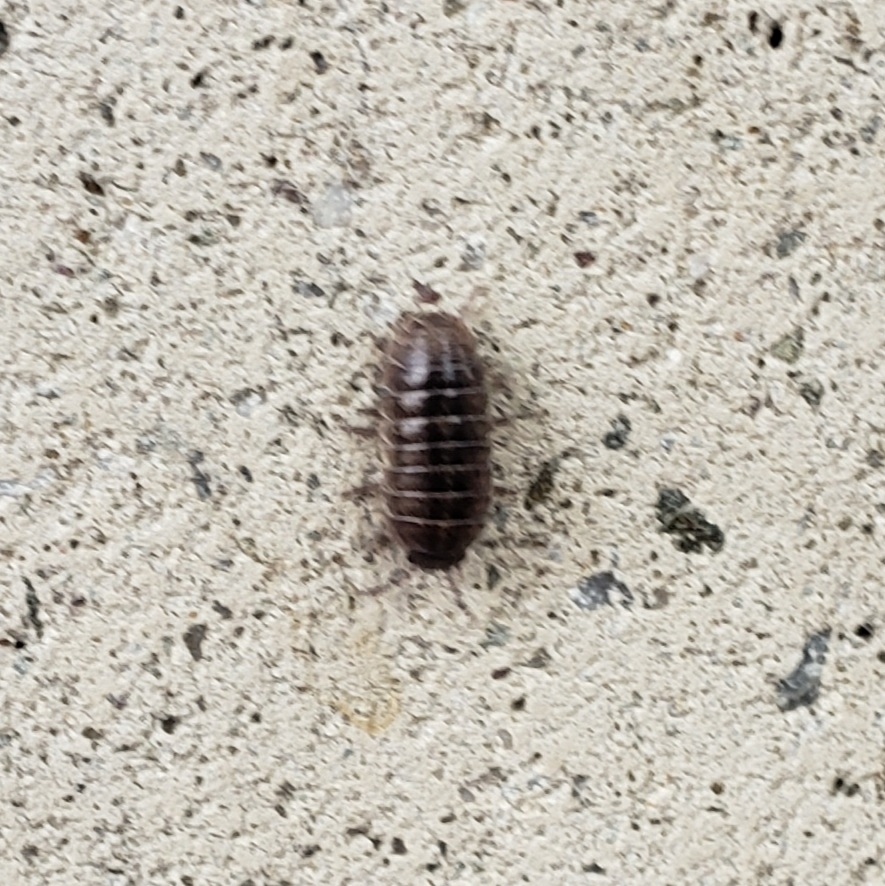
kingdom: Animalia
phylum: Arthropoda
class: Malacostraca
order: Isopoda
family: Armadillidiidae
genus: Armadillidium
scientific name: Armadillidium vulgare
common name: Common pill woodlouse
